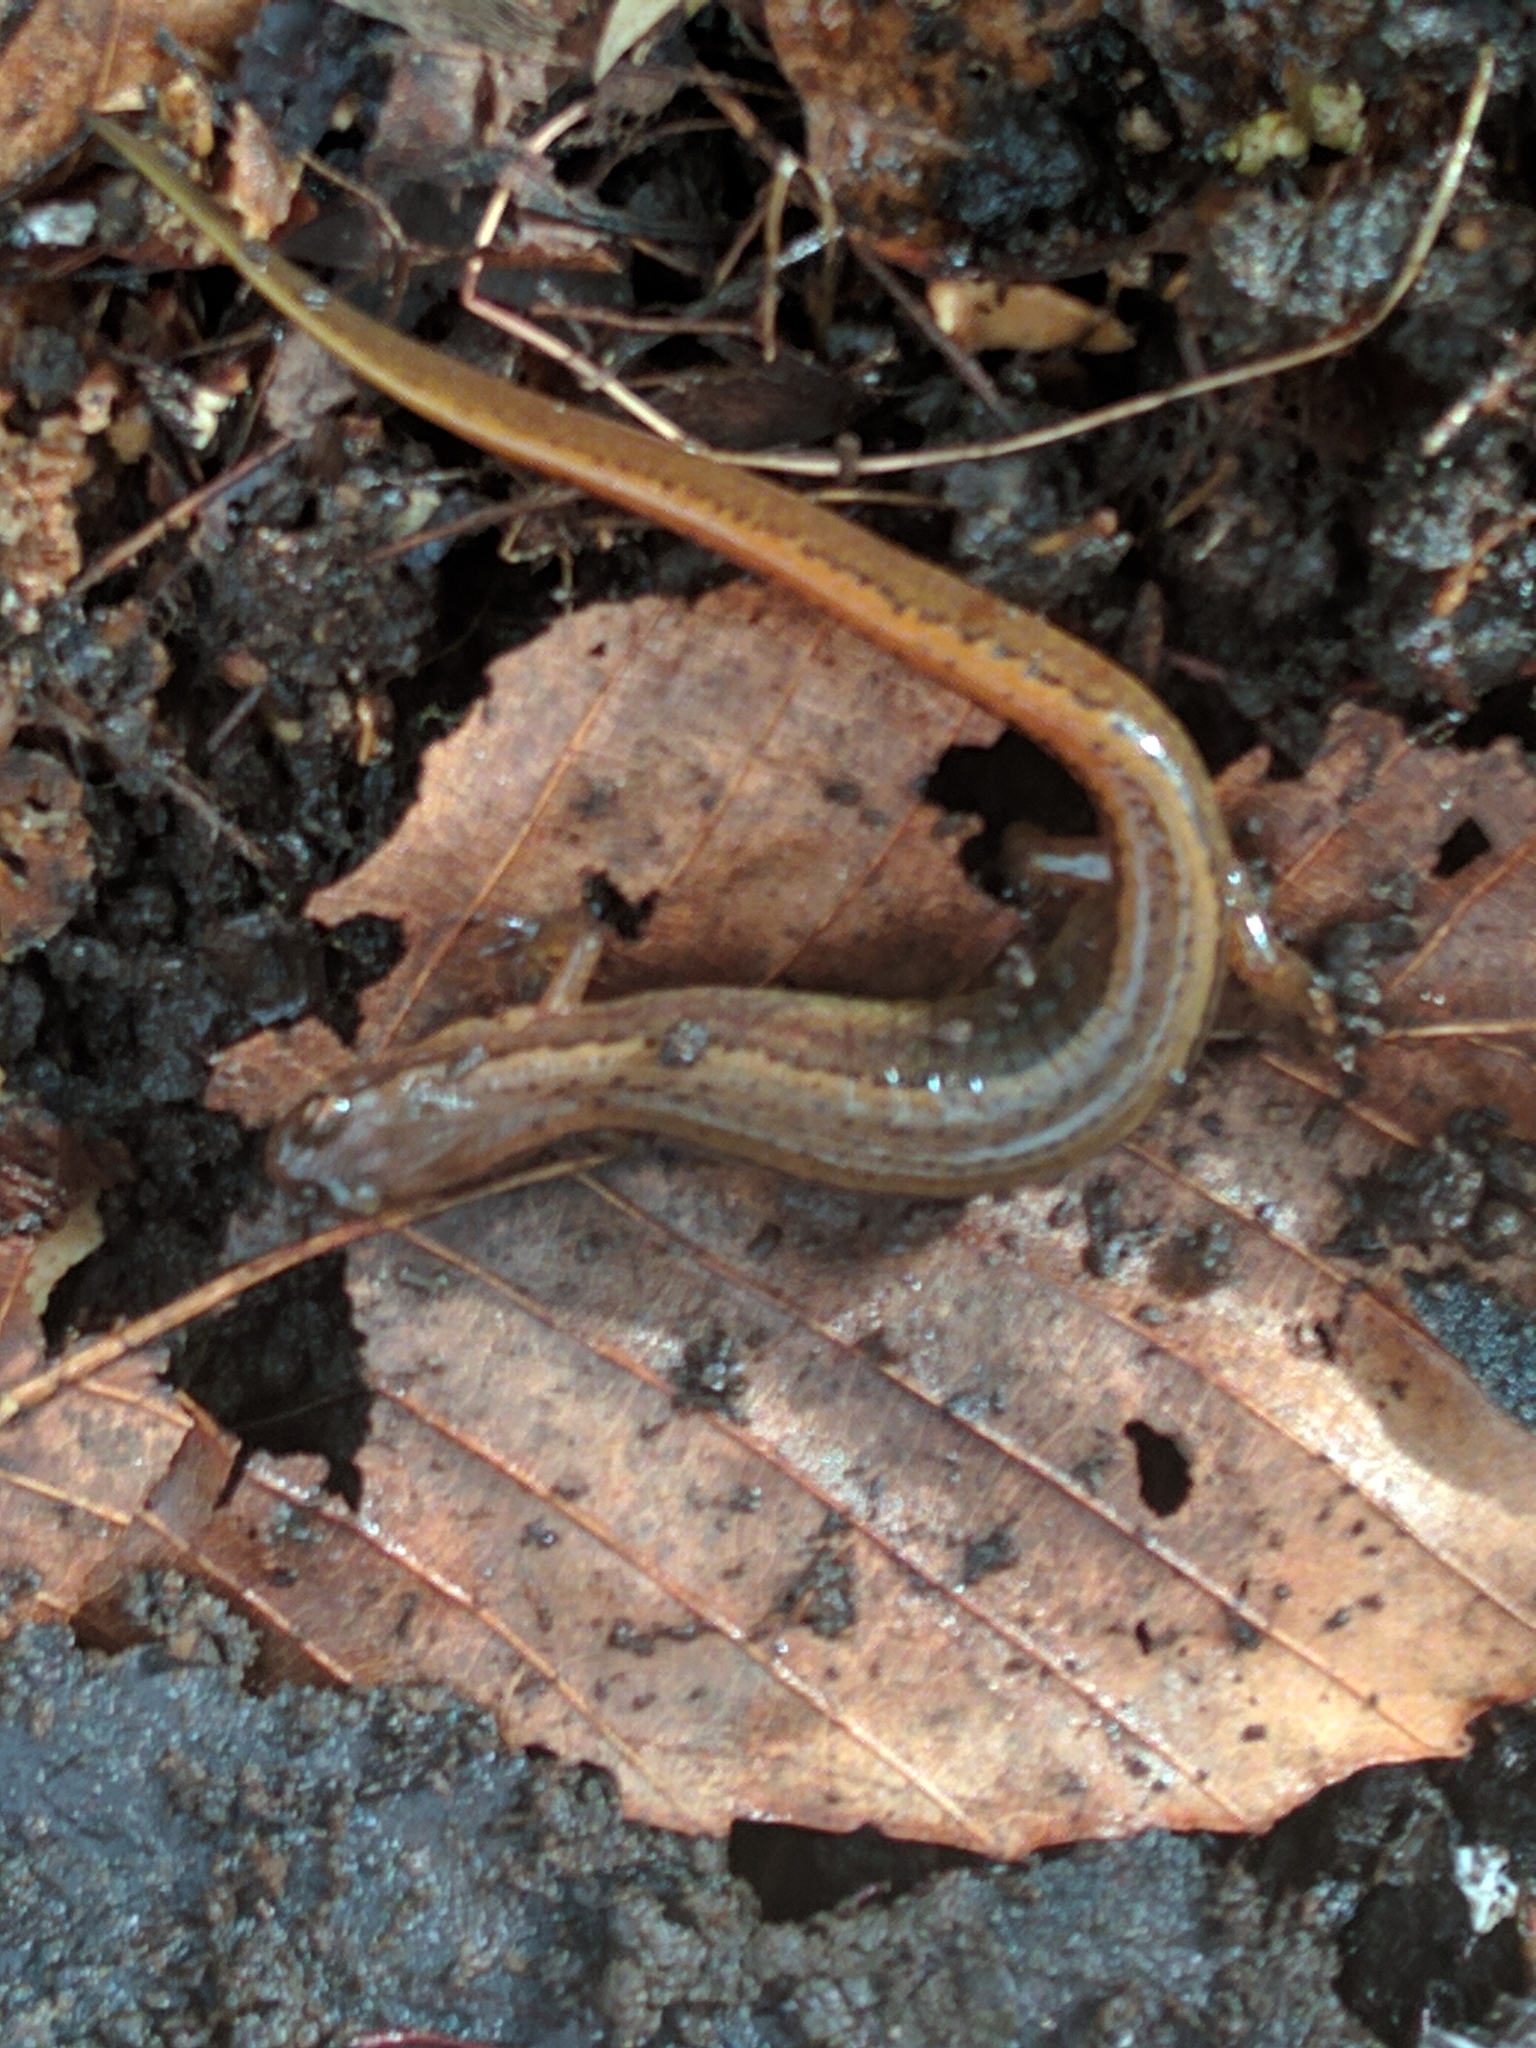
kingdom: Animalia
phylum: Chordata
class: Amphibia
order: Caudata
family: Plethodontidae
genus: Eurycea
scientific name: Eurycea bislineata
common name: Northern two-lined salamander
